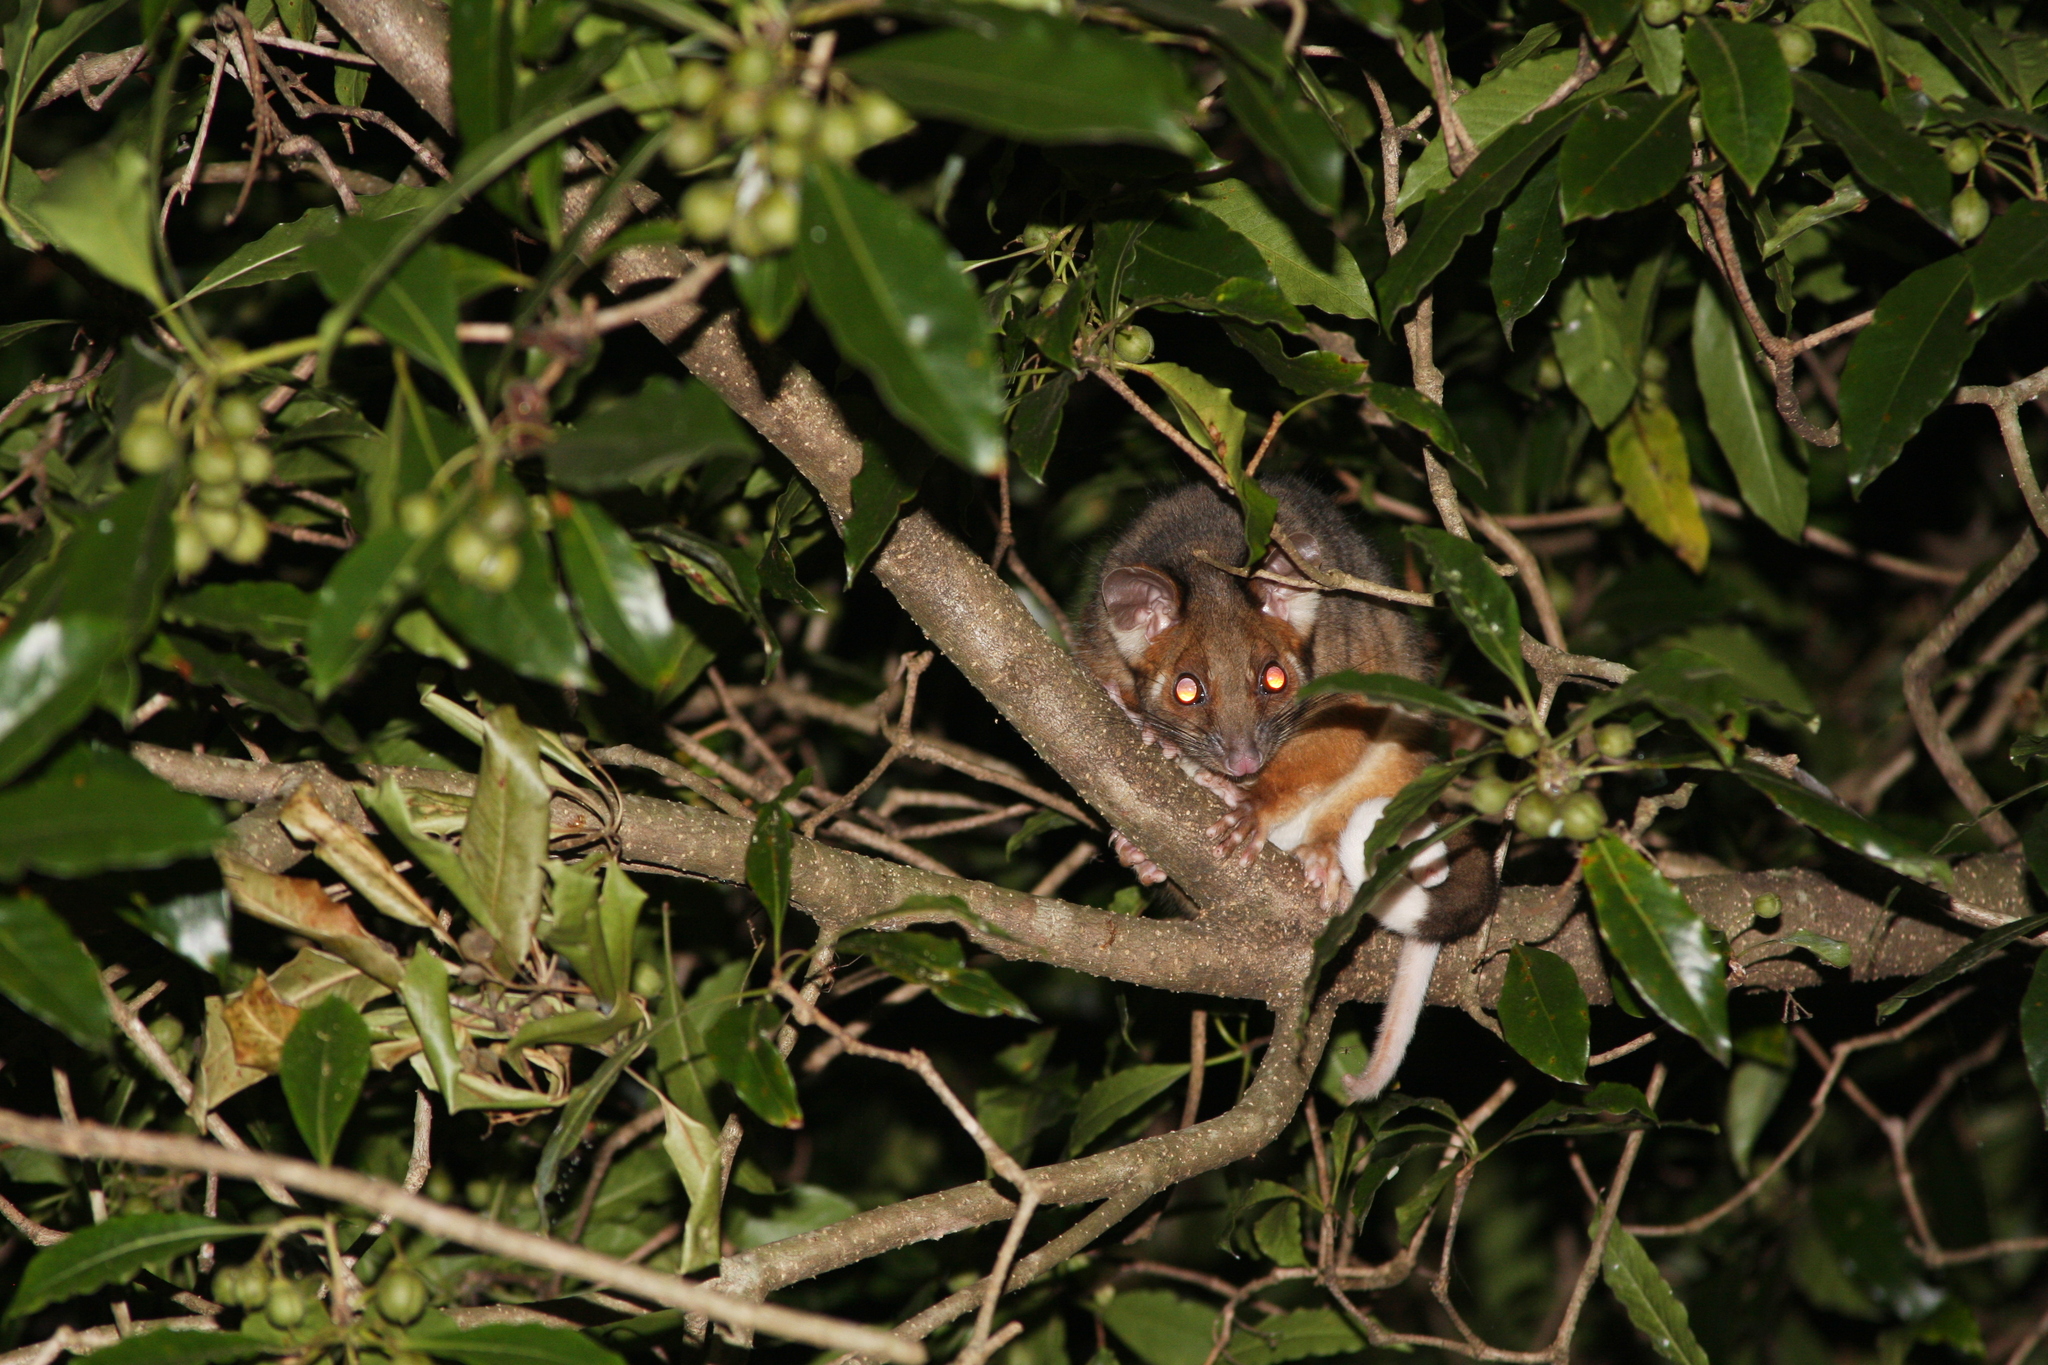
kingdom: Animalia
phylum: Chordata
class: Mammalia
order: Diprotodontia
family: Pseudocheiridae
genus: Pseudocheirus
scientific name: Pseudocheirus peregrinus
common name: Common ringtail possum
